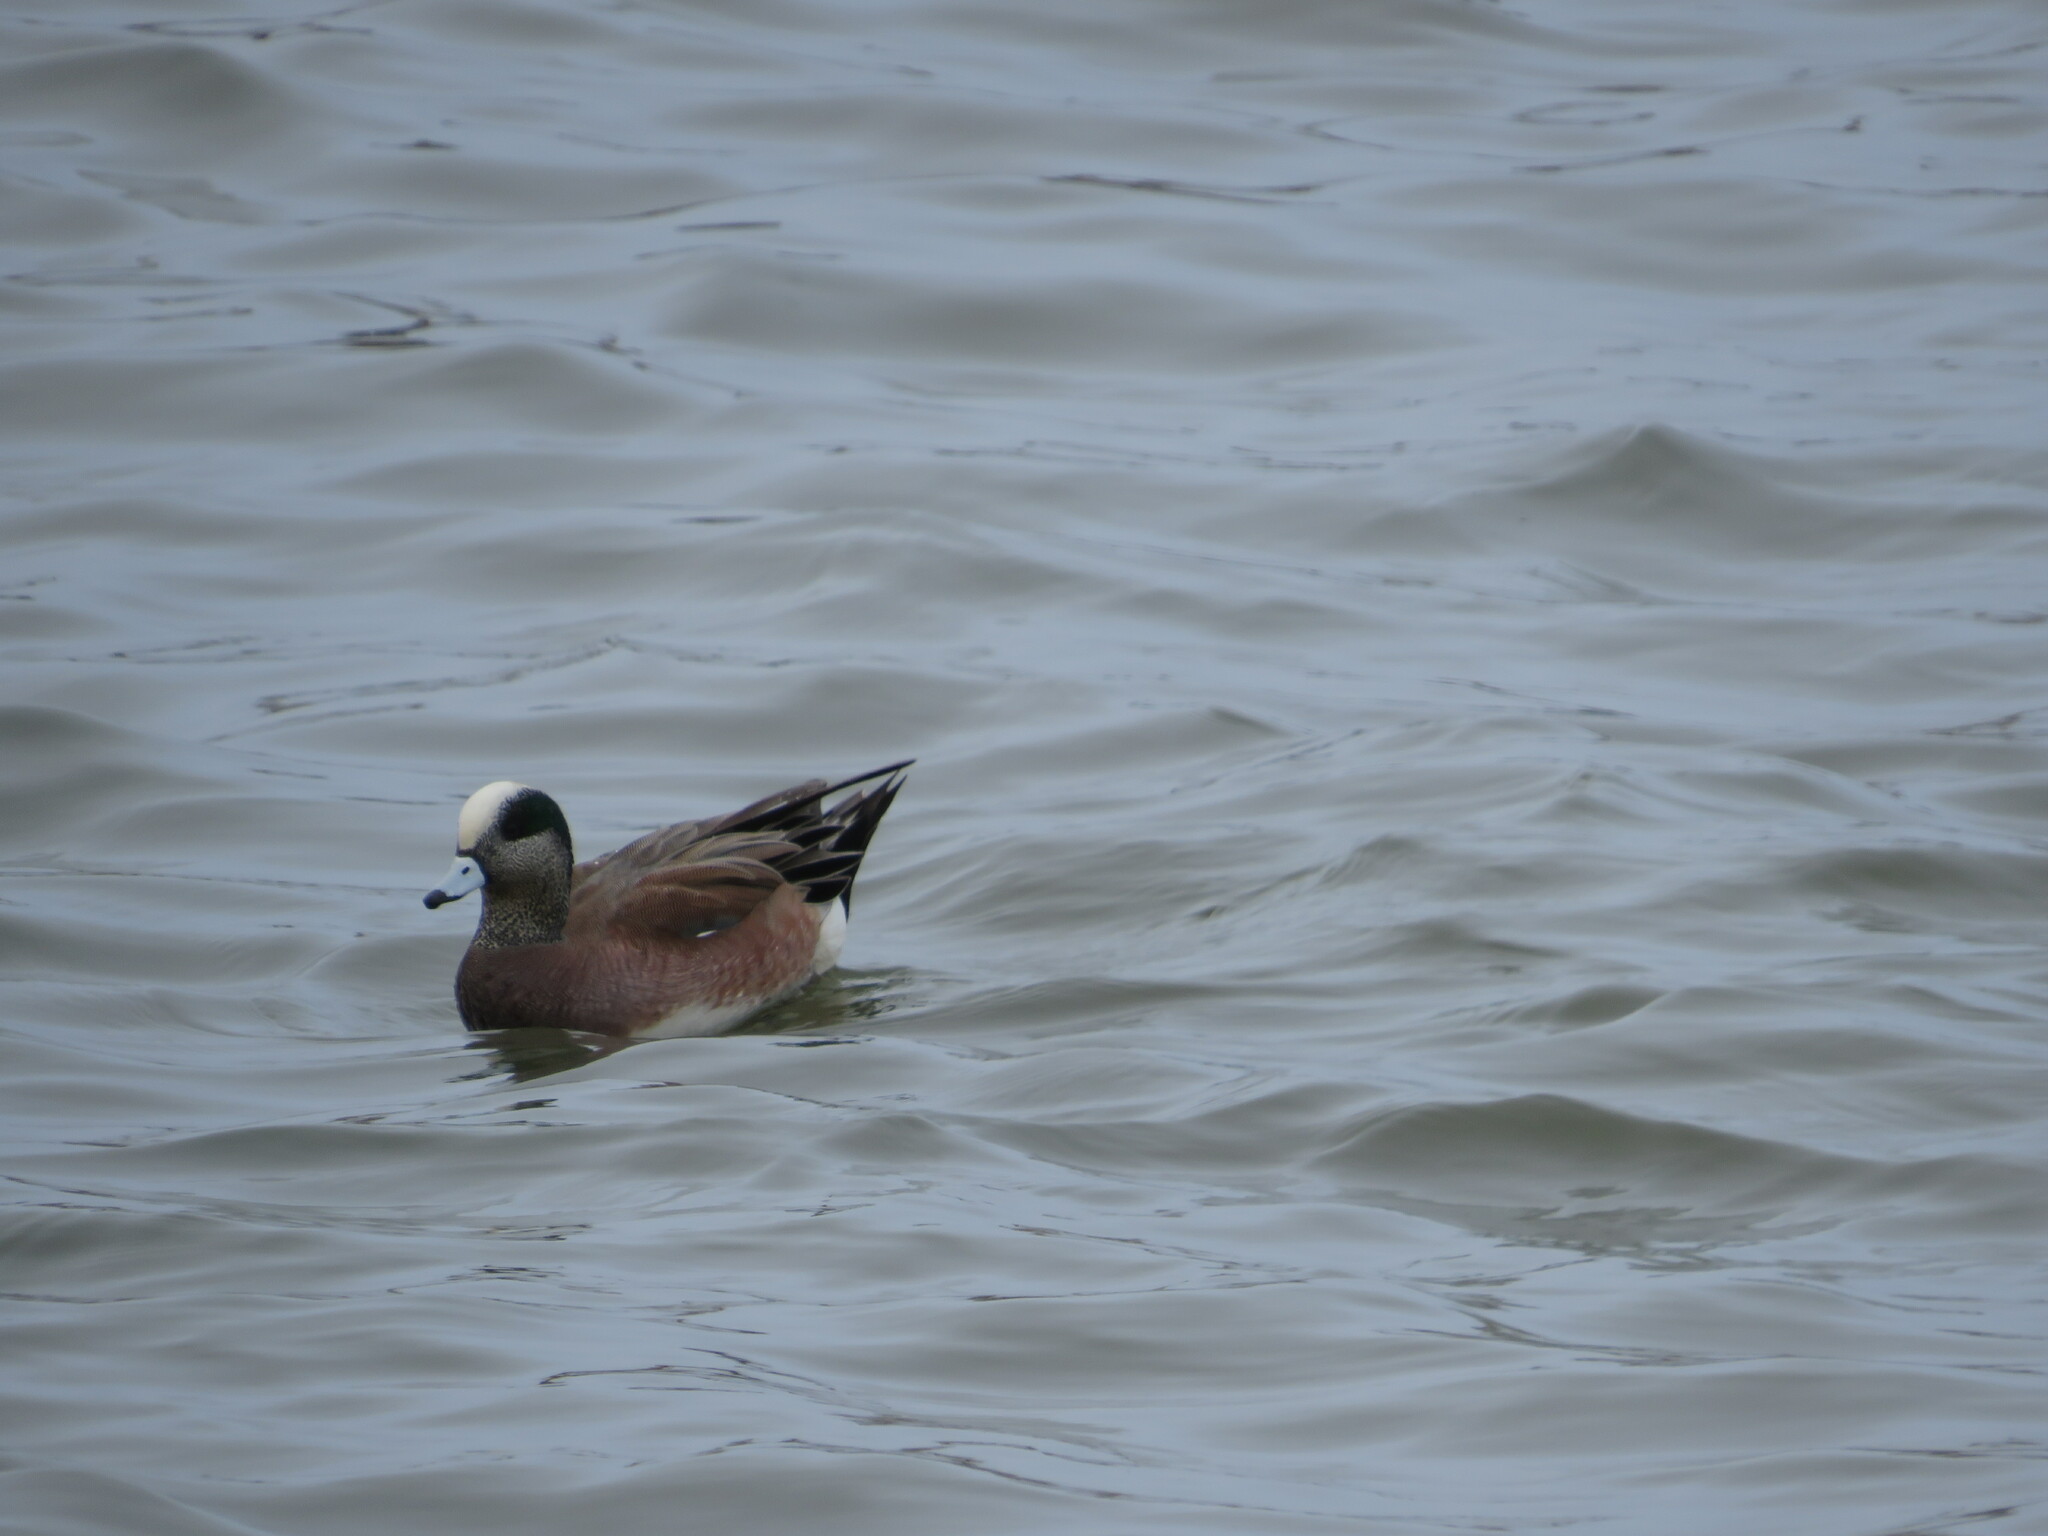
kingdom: Animalia
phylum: Chordata
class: Aves
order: Anseriformes
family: Anatidae
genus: Mareca
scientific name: Mareca americana
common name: American wigeon
